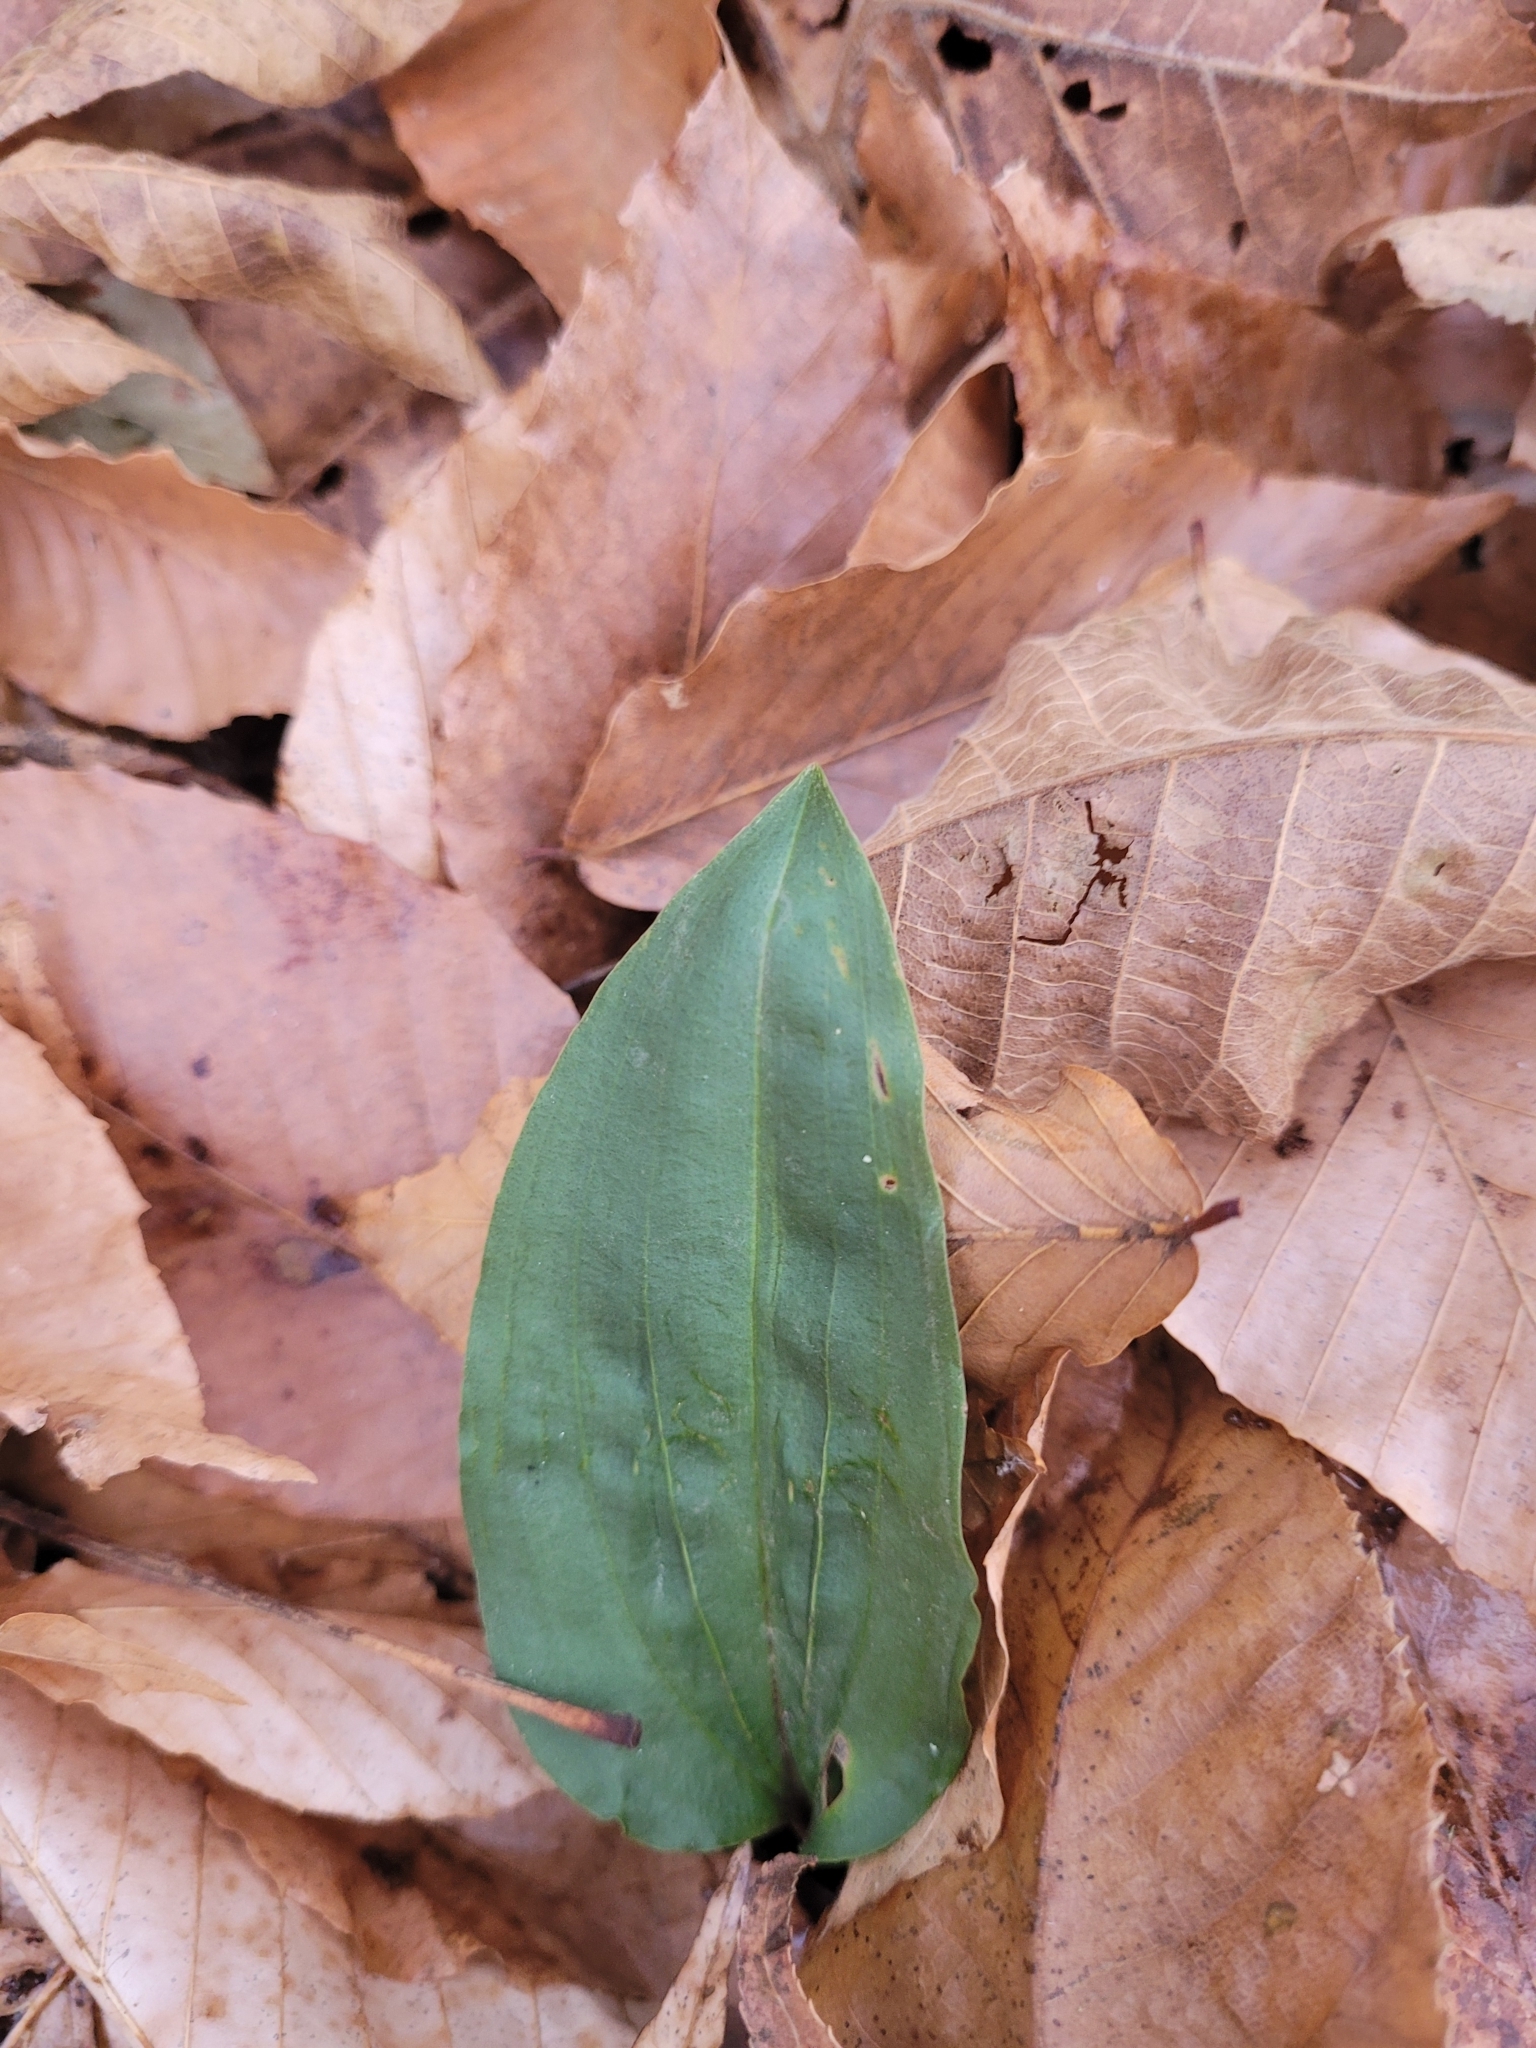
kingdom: Plantae
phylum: Tracheophyta
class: Liliopsida
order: Asparagales
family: Orchidaceae
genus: Tipularia
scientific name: Tipularia discolor
